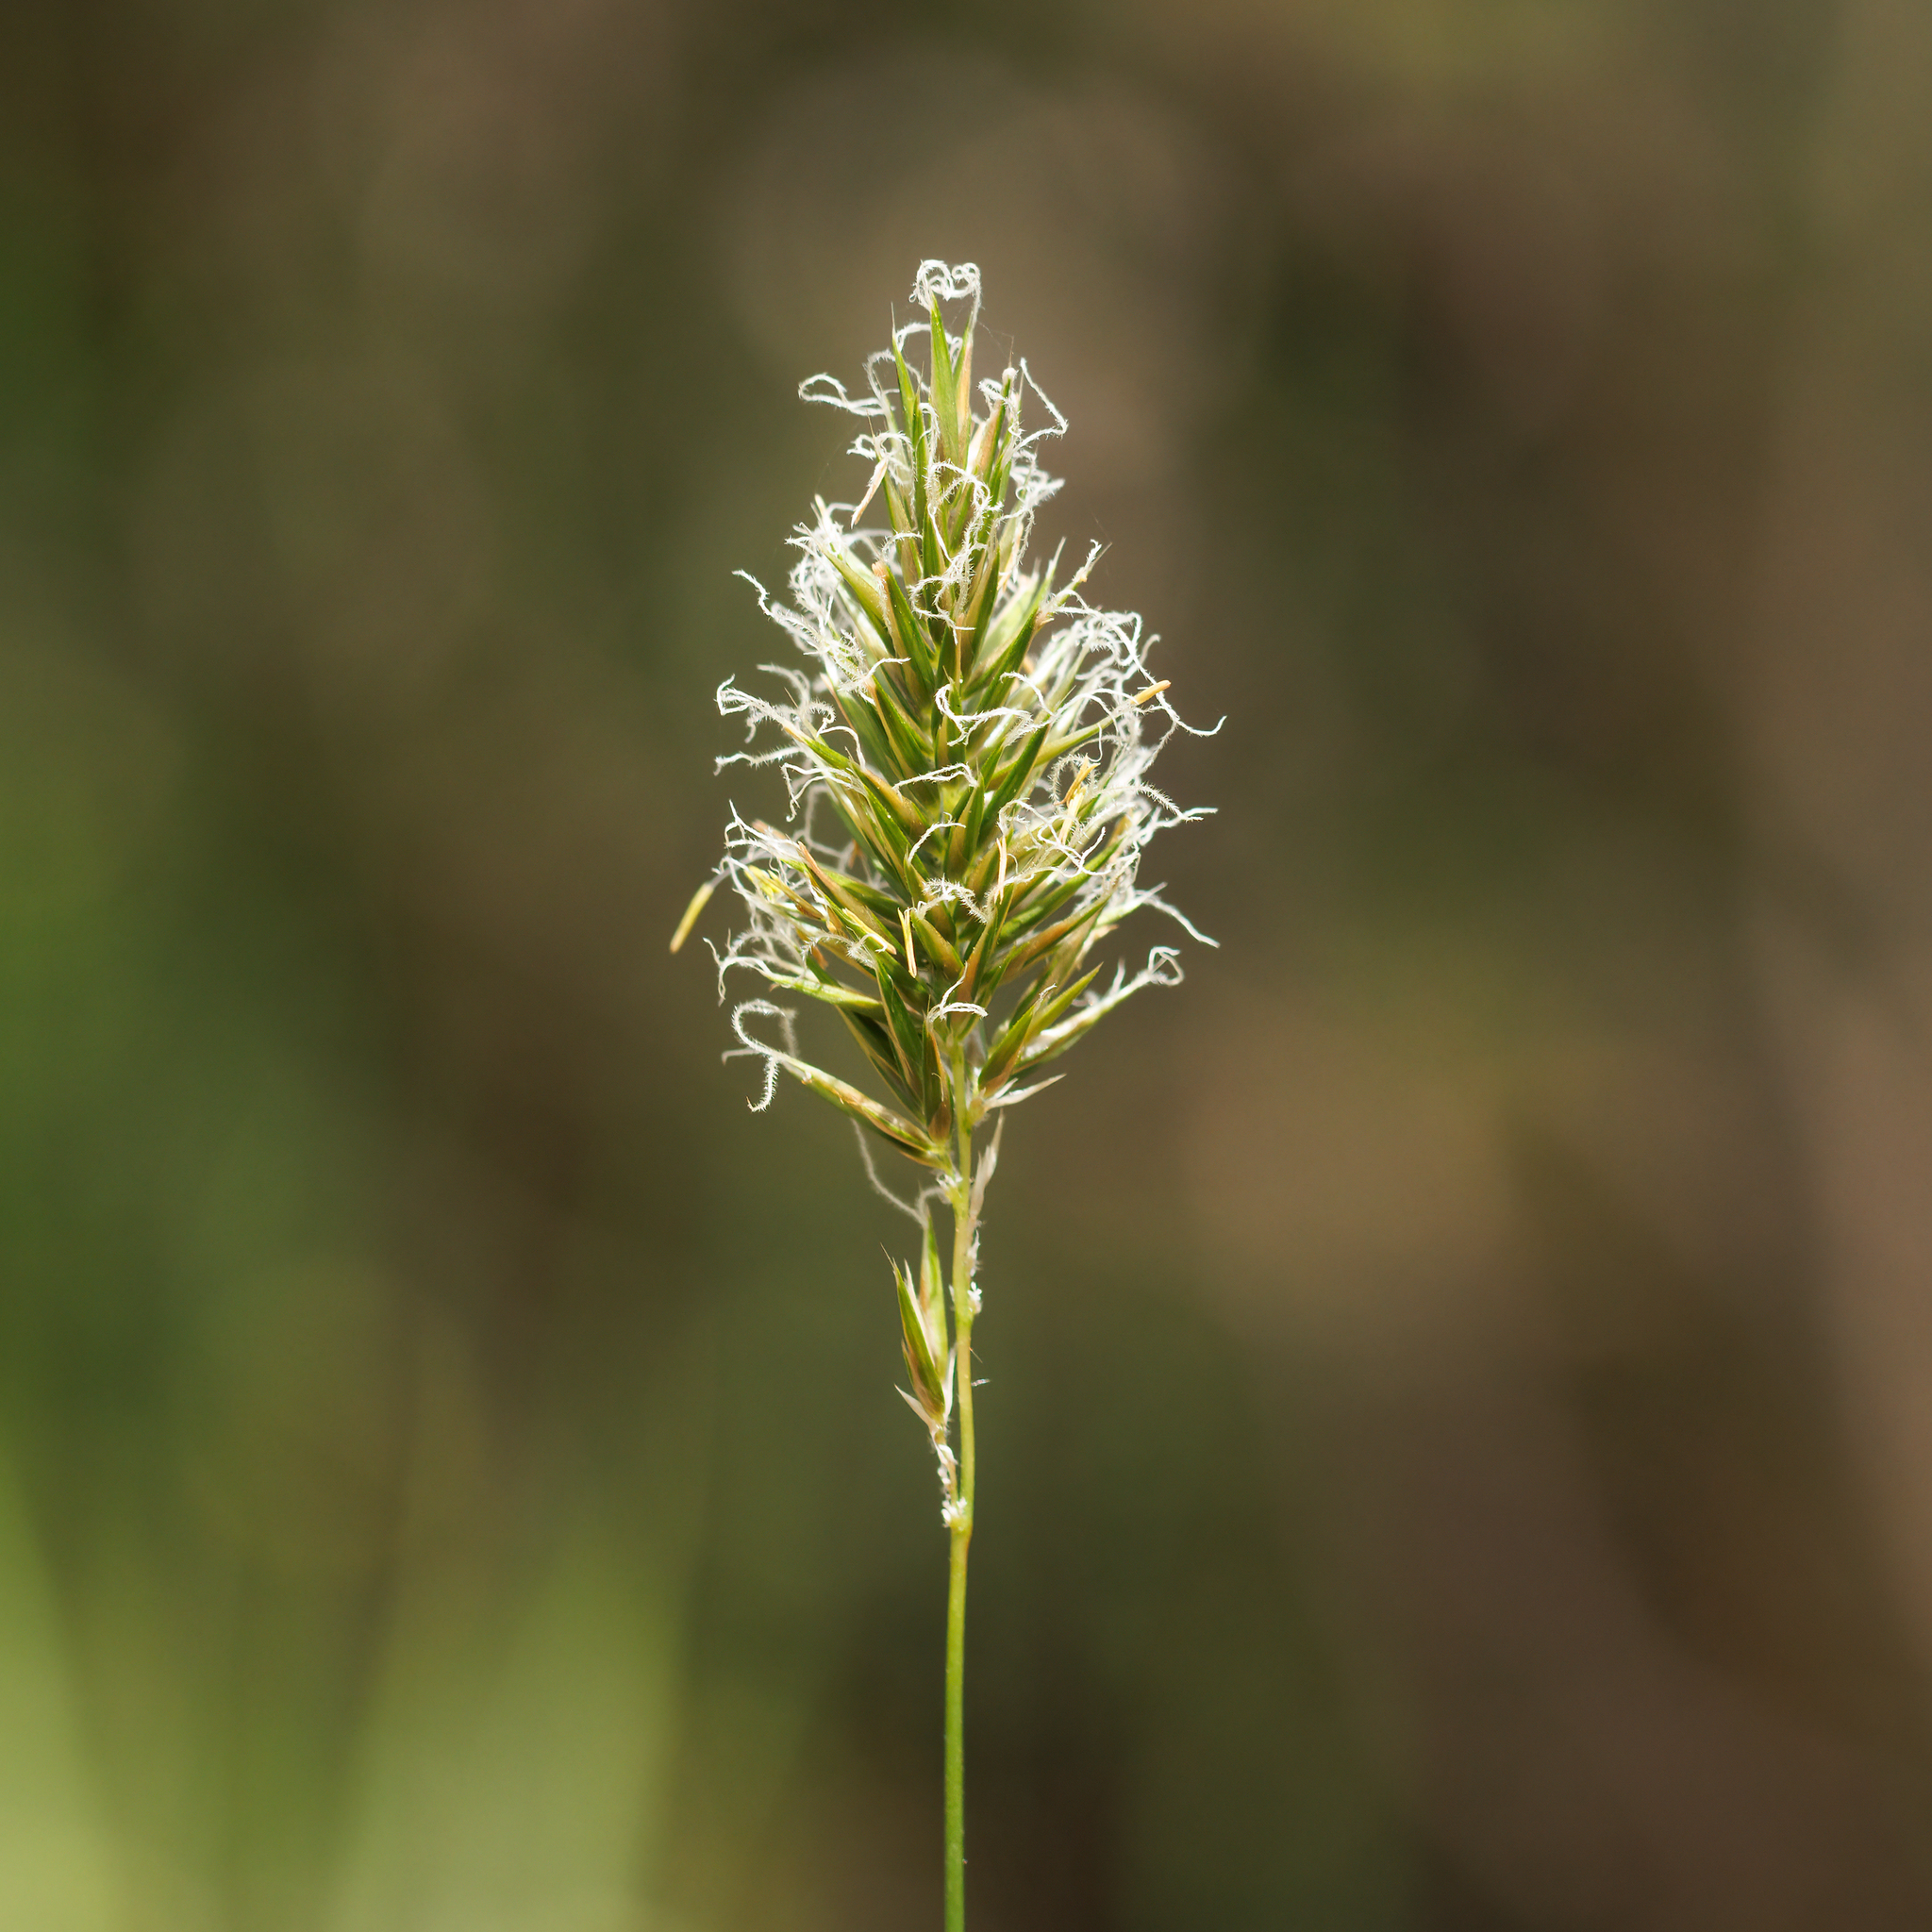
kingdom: Plantae
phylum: Tracheophyta
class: Liliopsida
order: Poales
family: Poaceae
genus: Anthoxanthum
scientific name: Anthoxanthum odoratum
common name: Sweet vernalgrass
